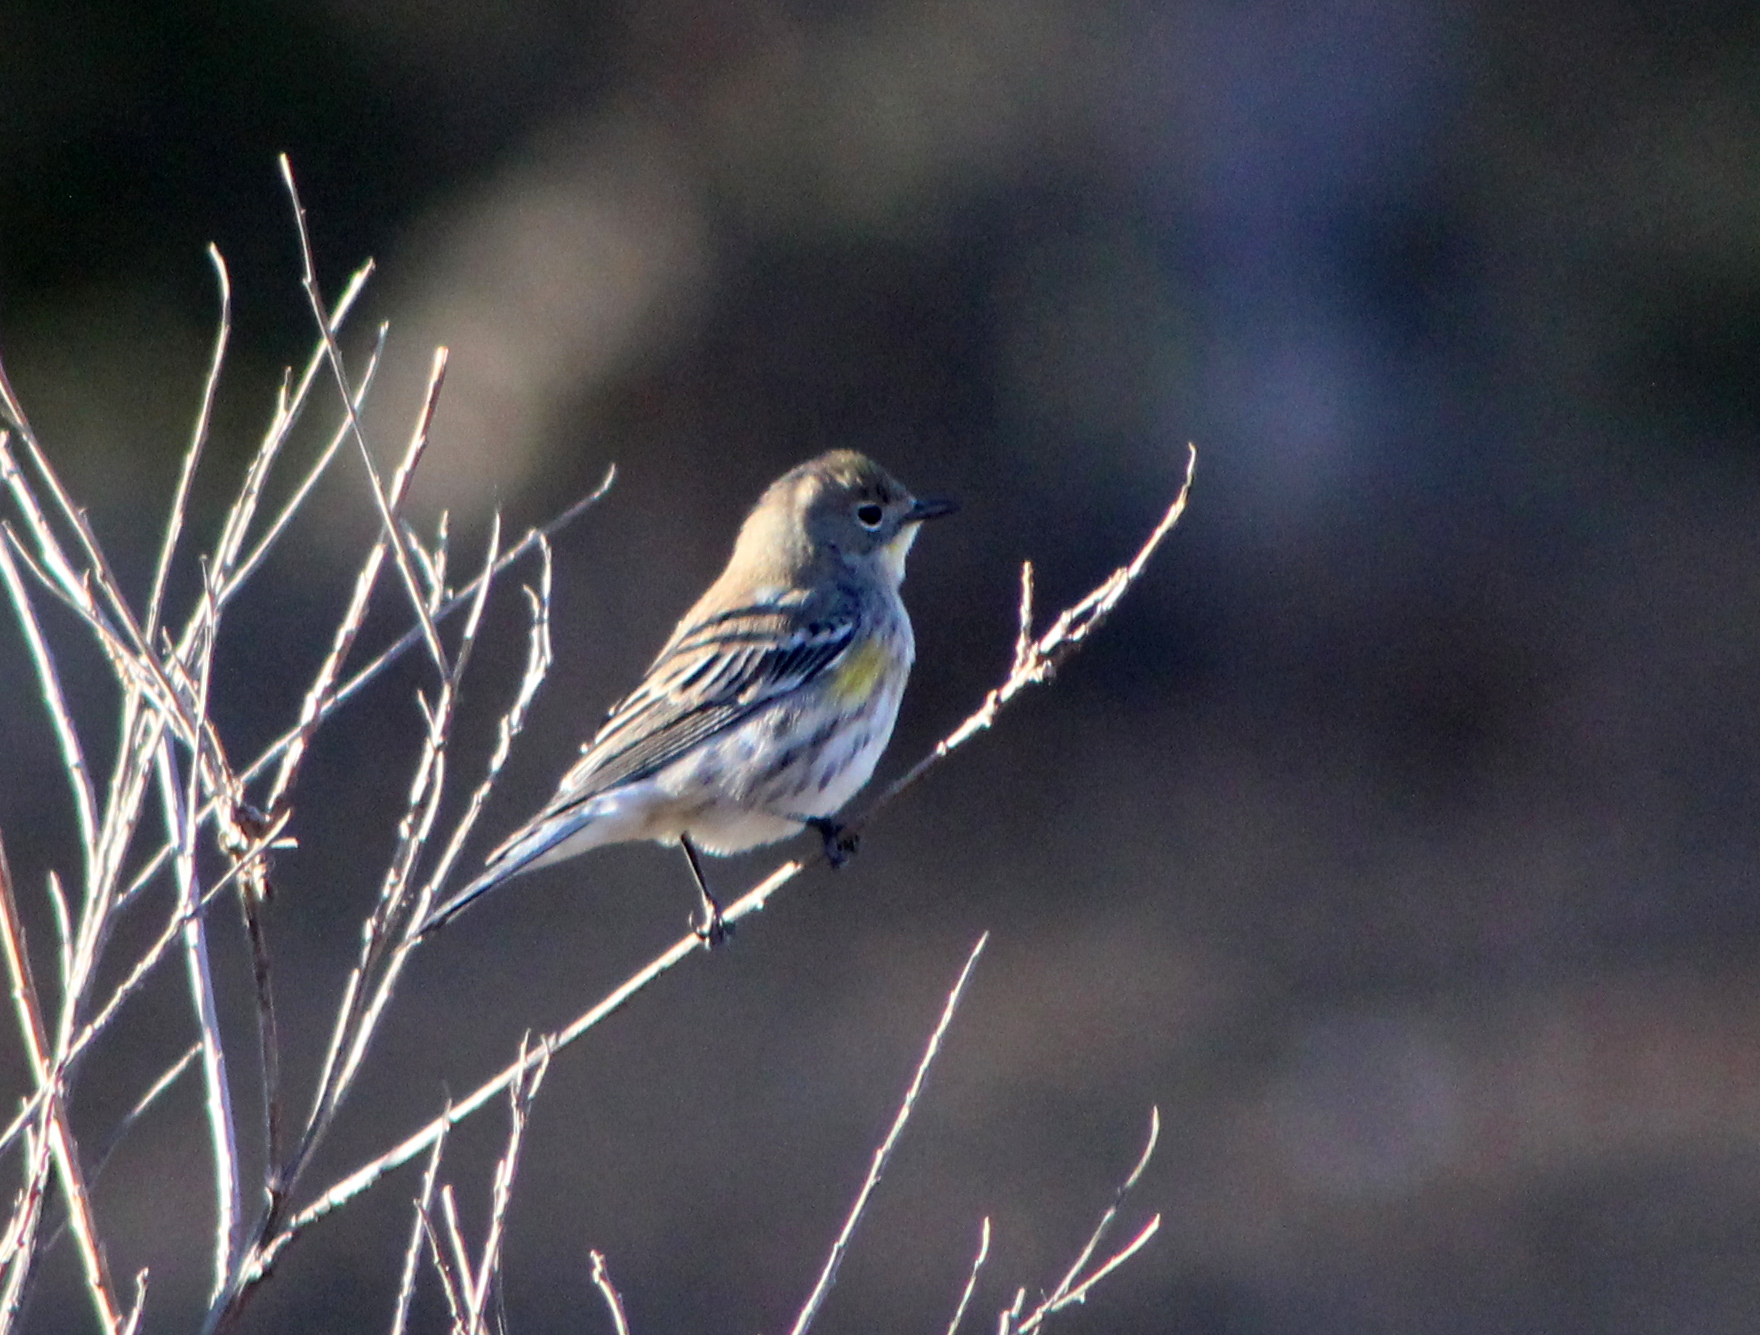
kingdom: Animalia
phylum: Chordata
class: Aves
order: Passeriformes
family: Parulidae
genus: Setophaga
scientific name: Setophaga coronata
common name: Myrtle warbler
